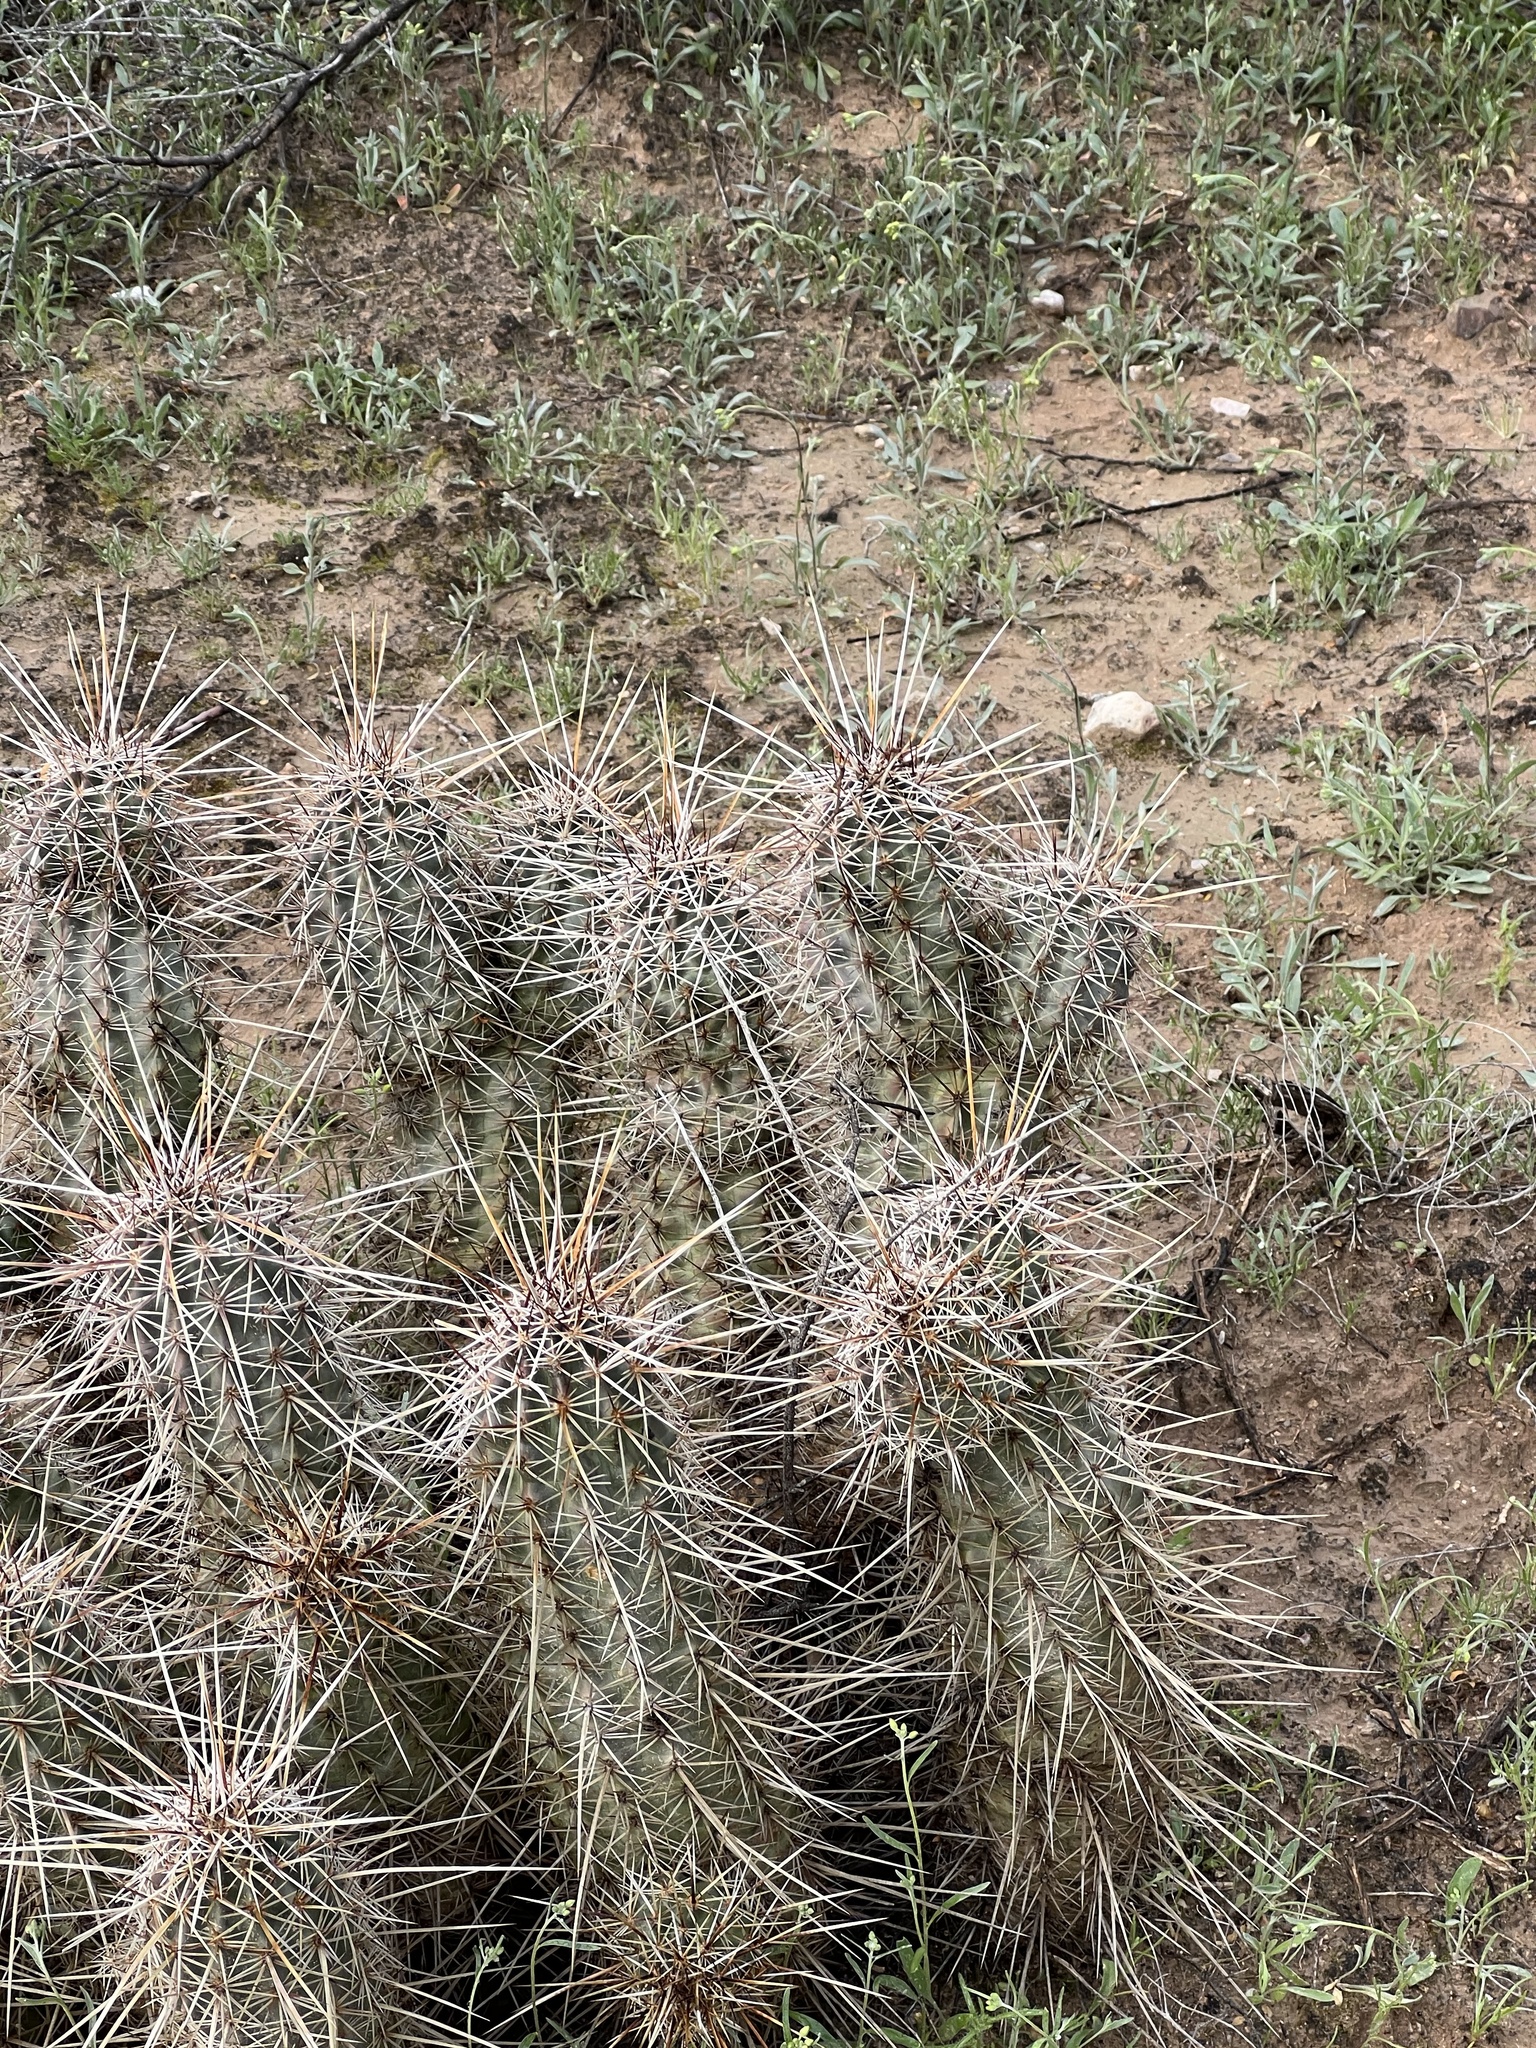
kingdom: Plantae
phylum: Tracheophyta
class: Magnoliopsida
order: Caryophyllales
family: Cactaceae
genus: Echinocereus
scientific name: Echinocereus fasciculatus
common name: Bundle hedgehog
